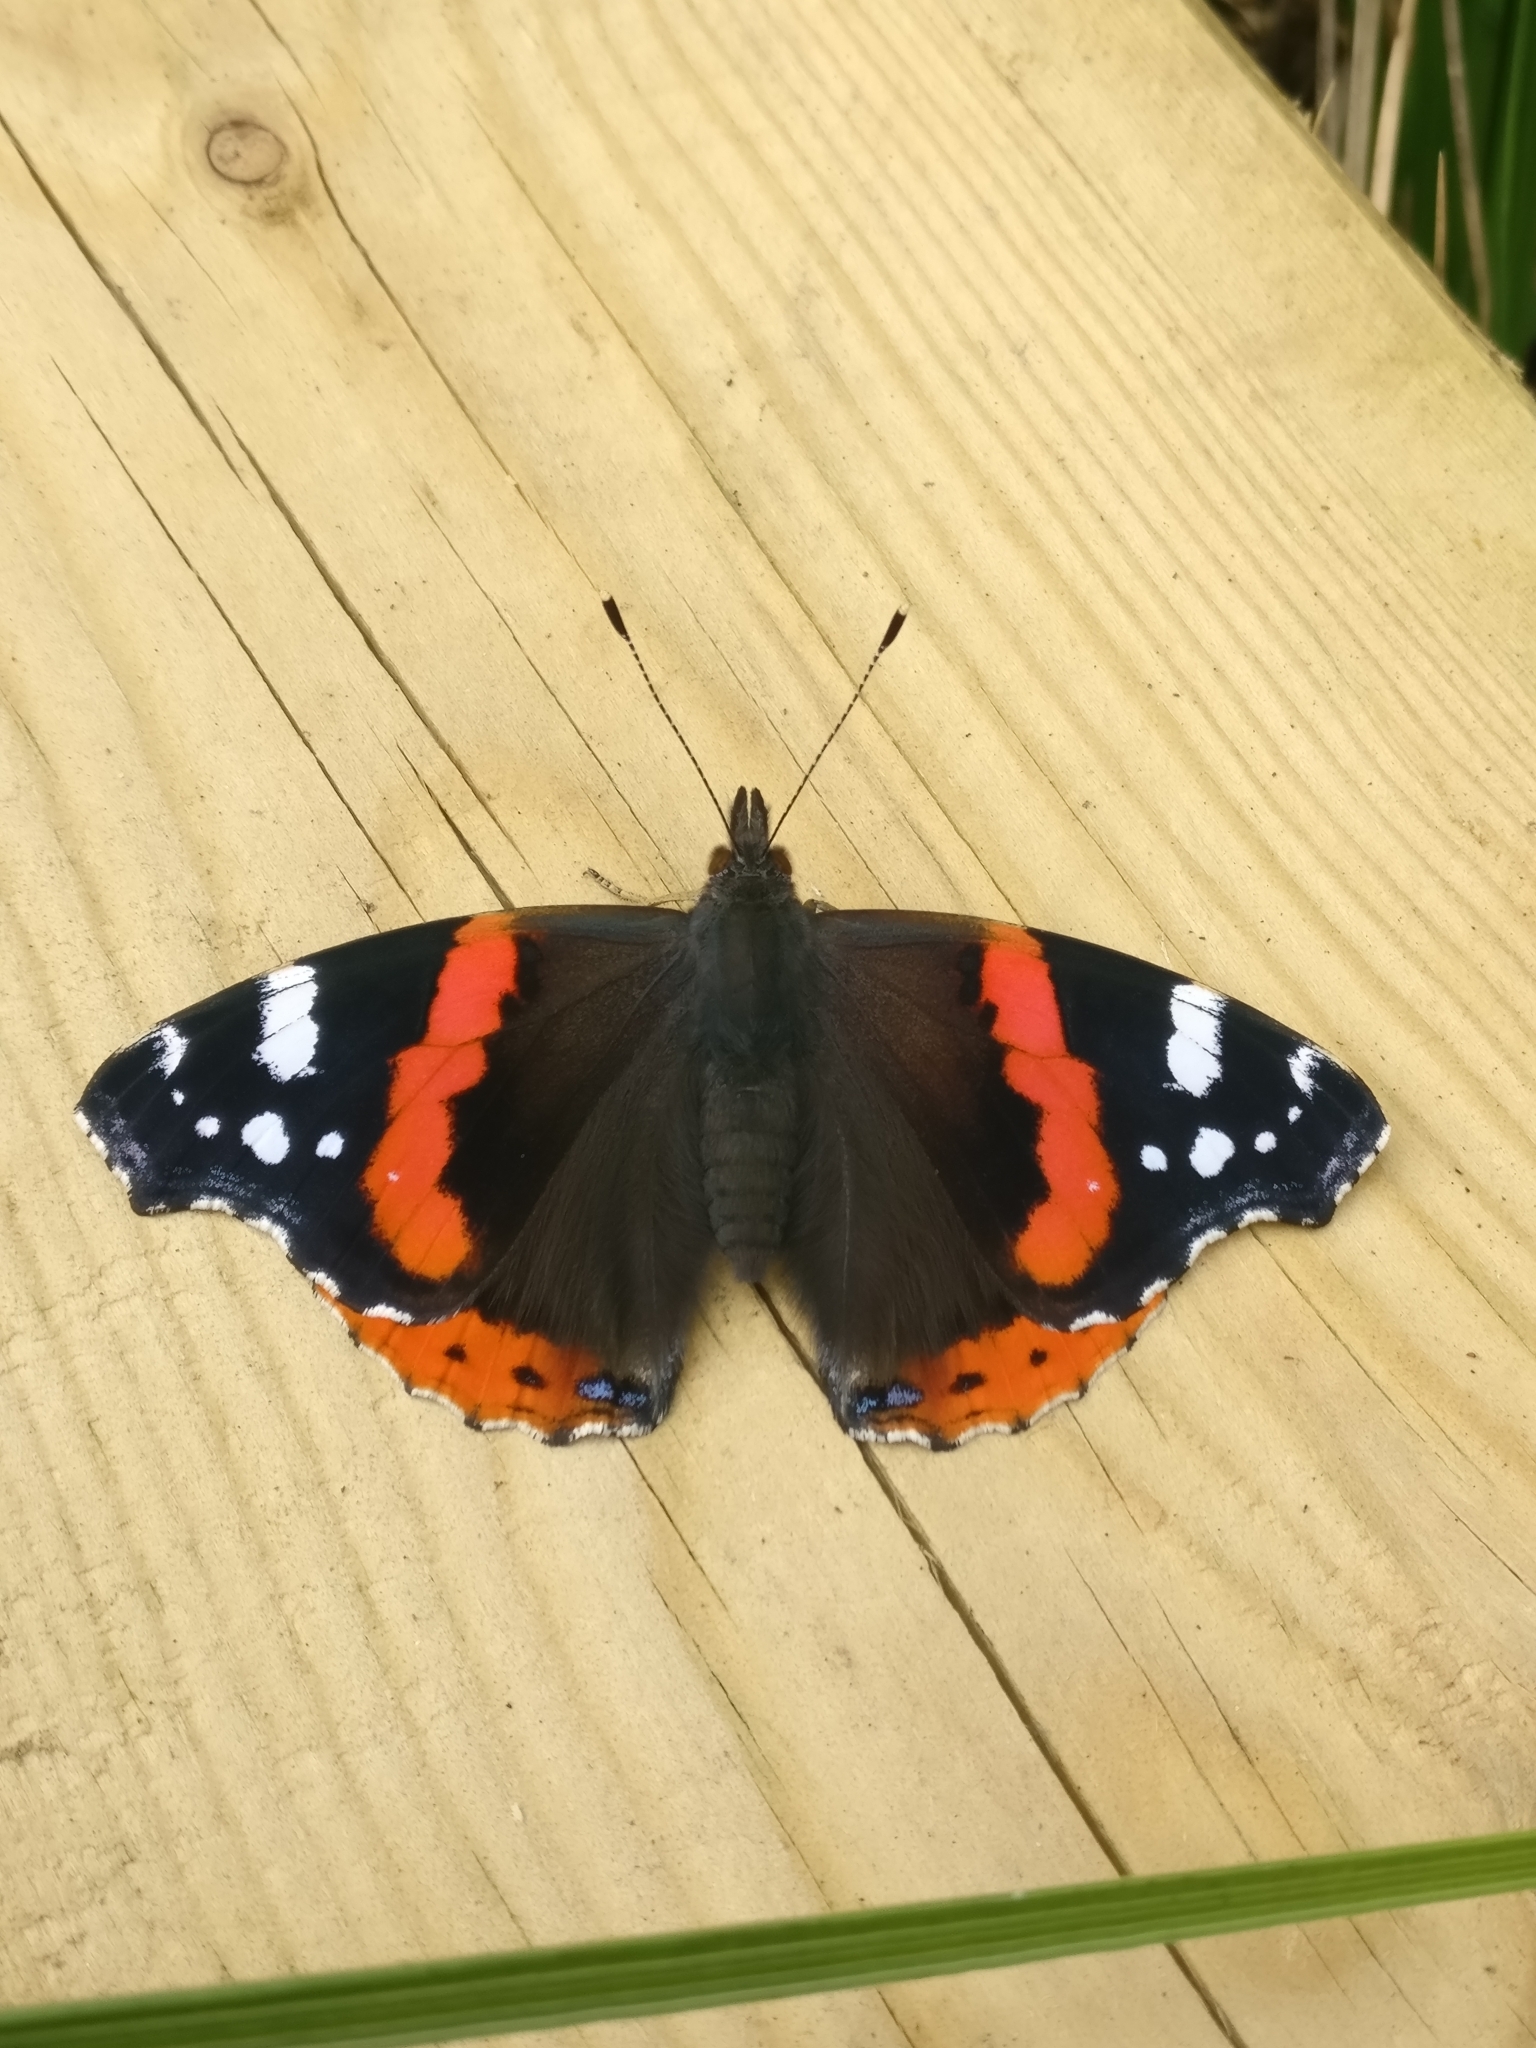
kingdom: Animalia
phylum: Arthropoda
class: Insecta
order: Lepidoptera
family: Nymphalidae
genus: Vanessa
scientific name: Vanessa atalanta
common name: Red admiral
